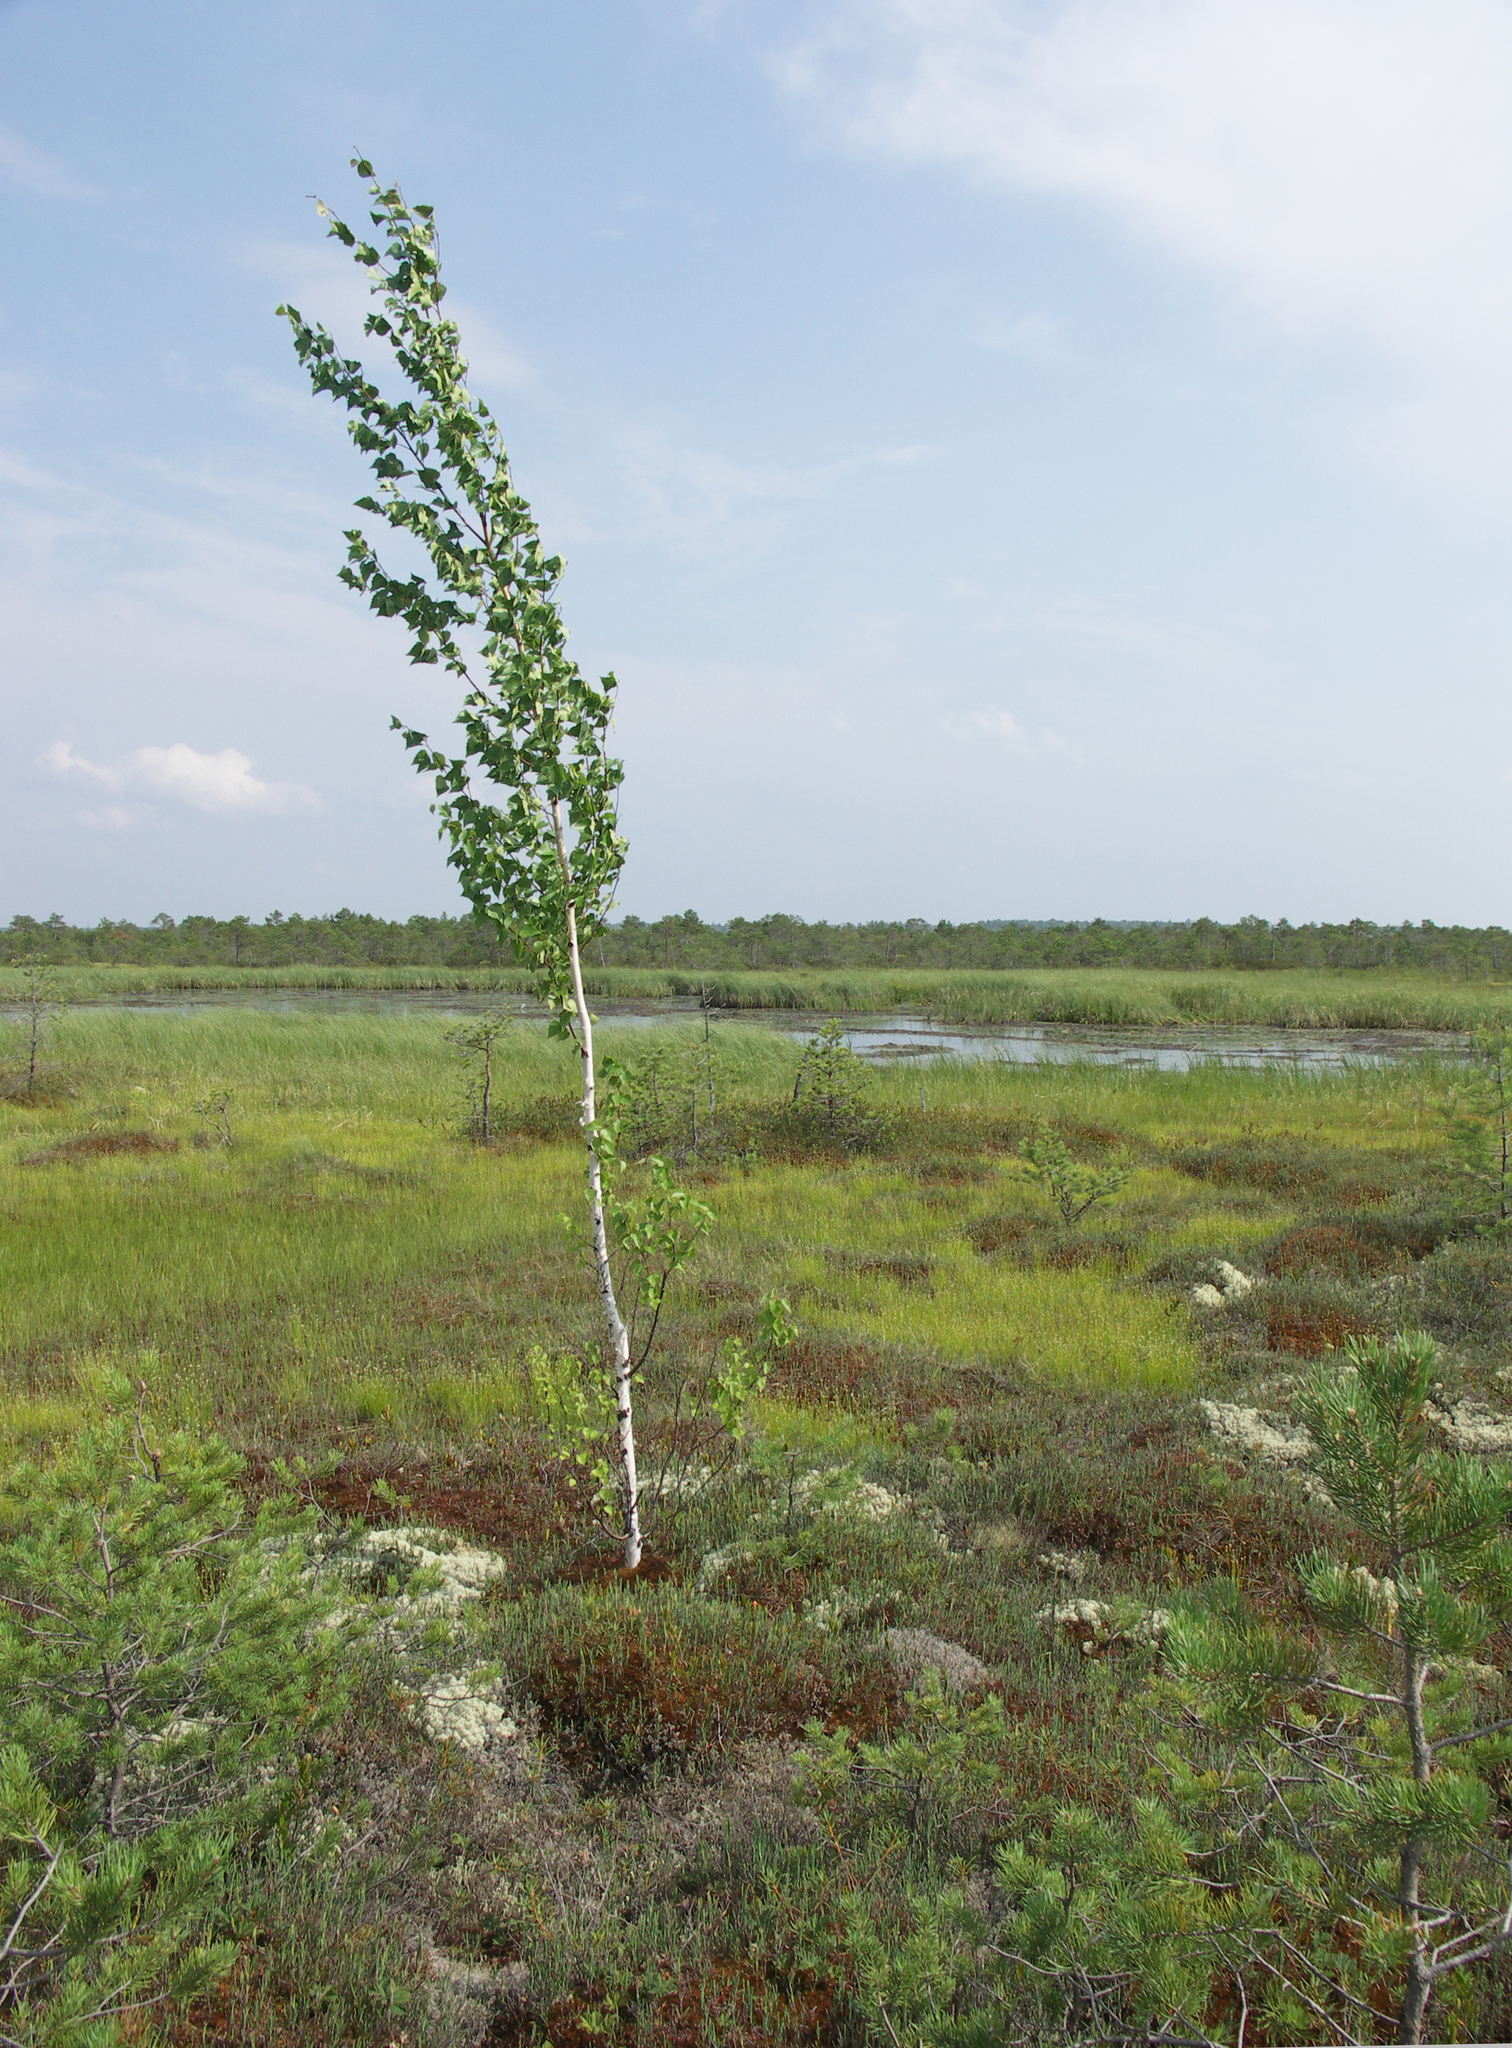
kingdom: Plantae
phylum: Tracheophyta
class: Magnoliopsida
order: Fagales
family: Betulaceae
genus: Betula
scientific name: Betula pubescens
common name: Downy birch
